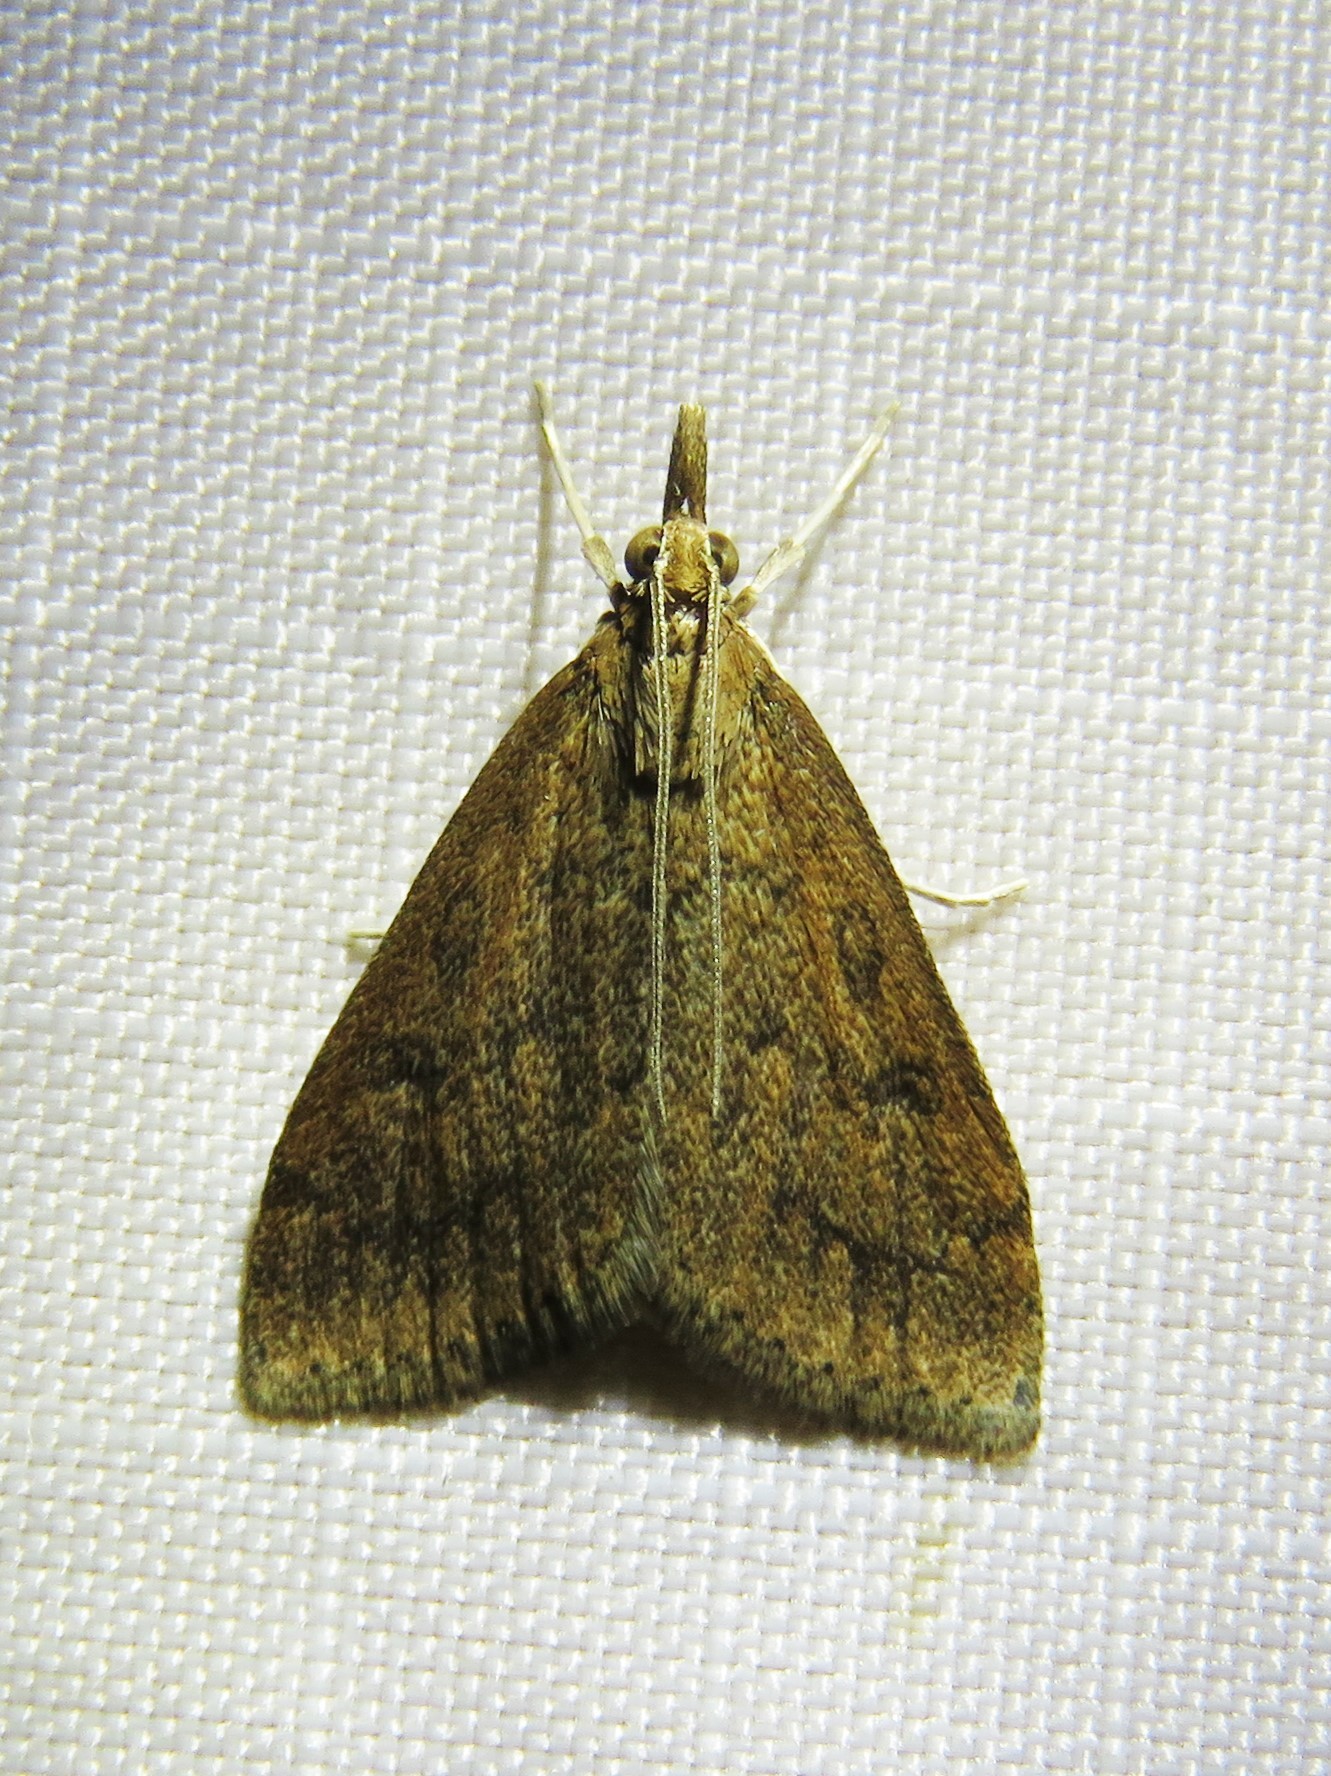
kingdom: Animalia
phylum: Arthropoda
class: Insecta
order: Lepidoptera
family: Crambidae
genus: Udea
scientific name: Udea rubigalis
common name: Celery leaftier moth
